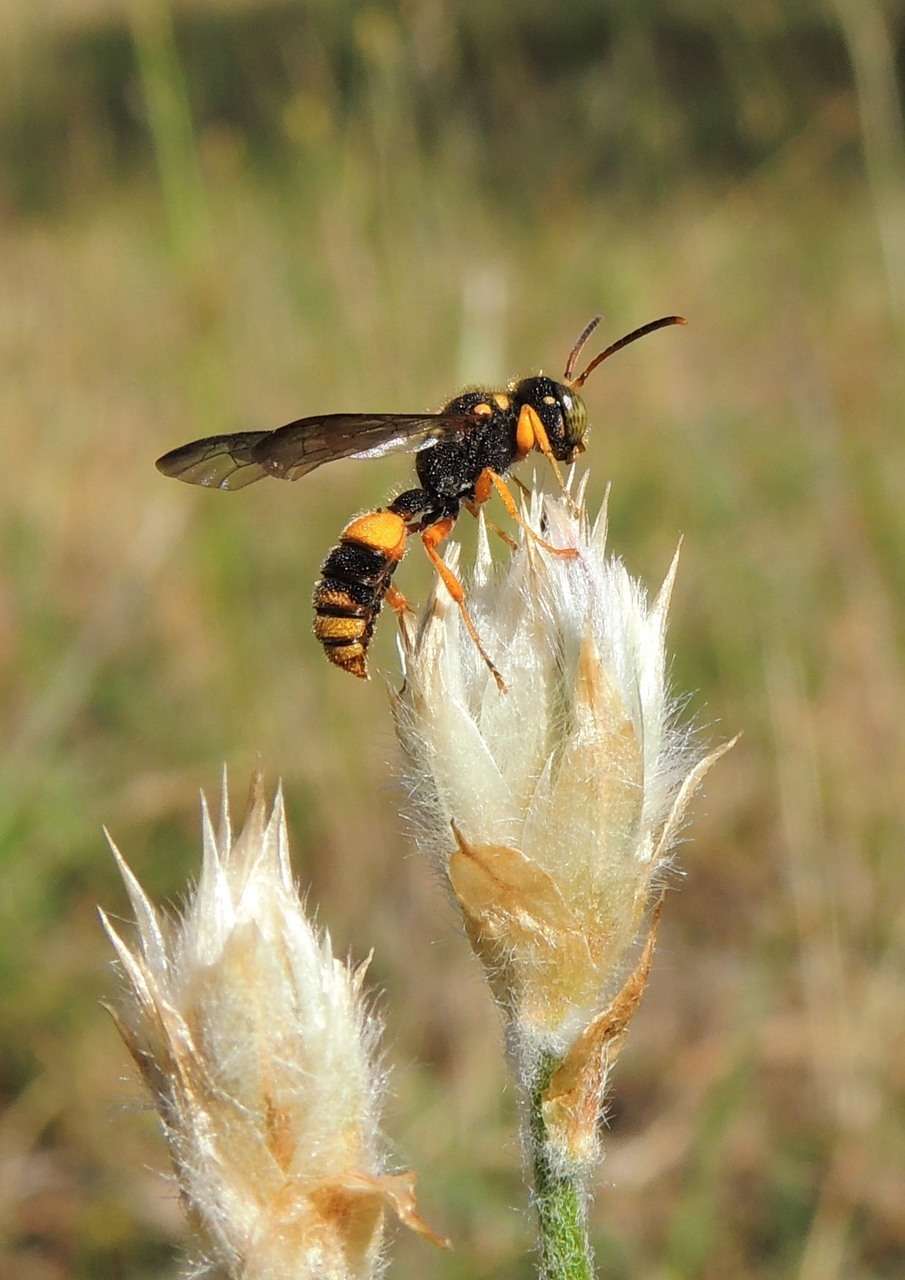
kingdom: Animalia
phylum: Arthropoda
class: Insecta
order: Hymenoptera
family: Crabronidae
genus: Cerceris
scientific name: Cerceris
